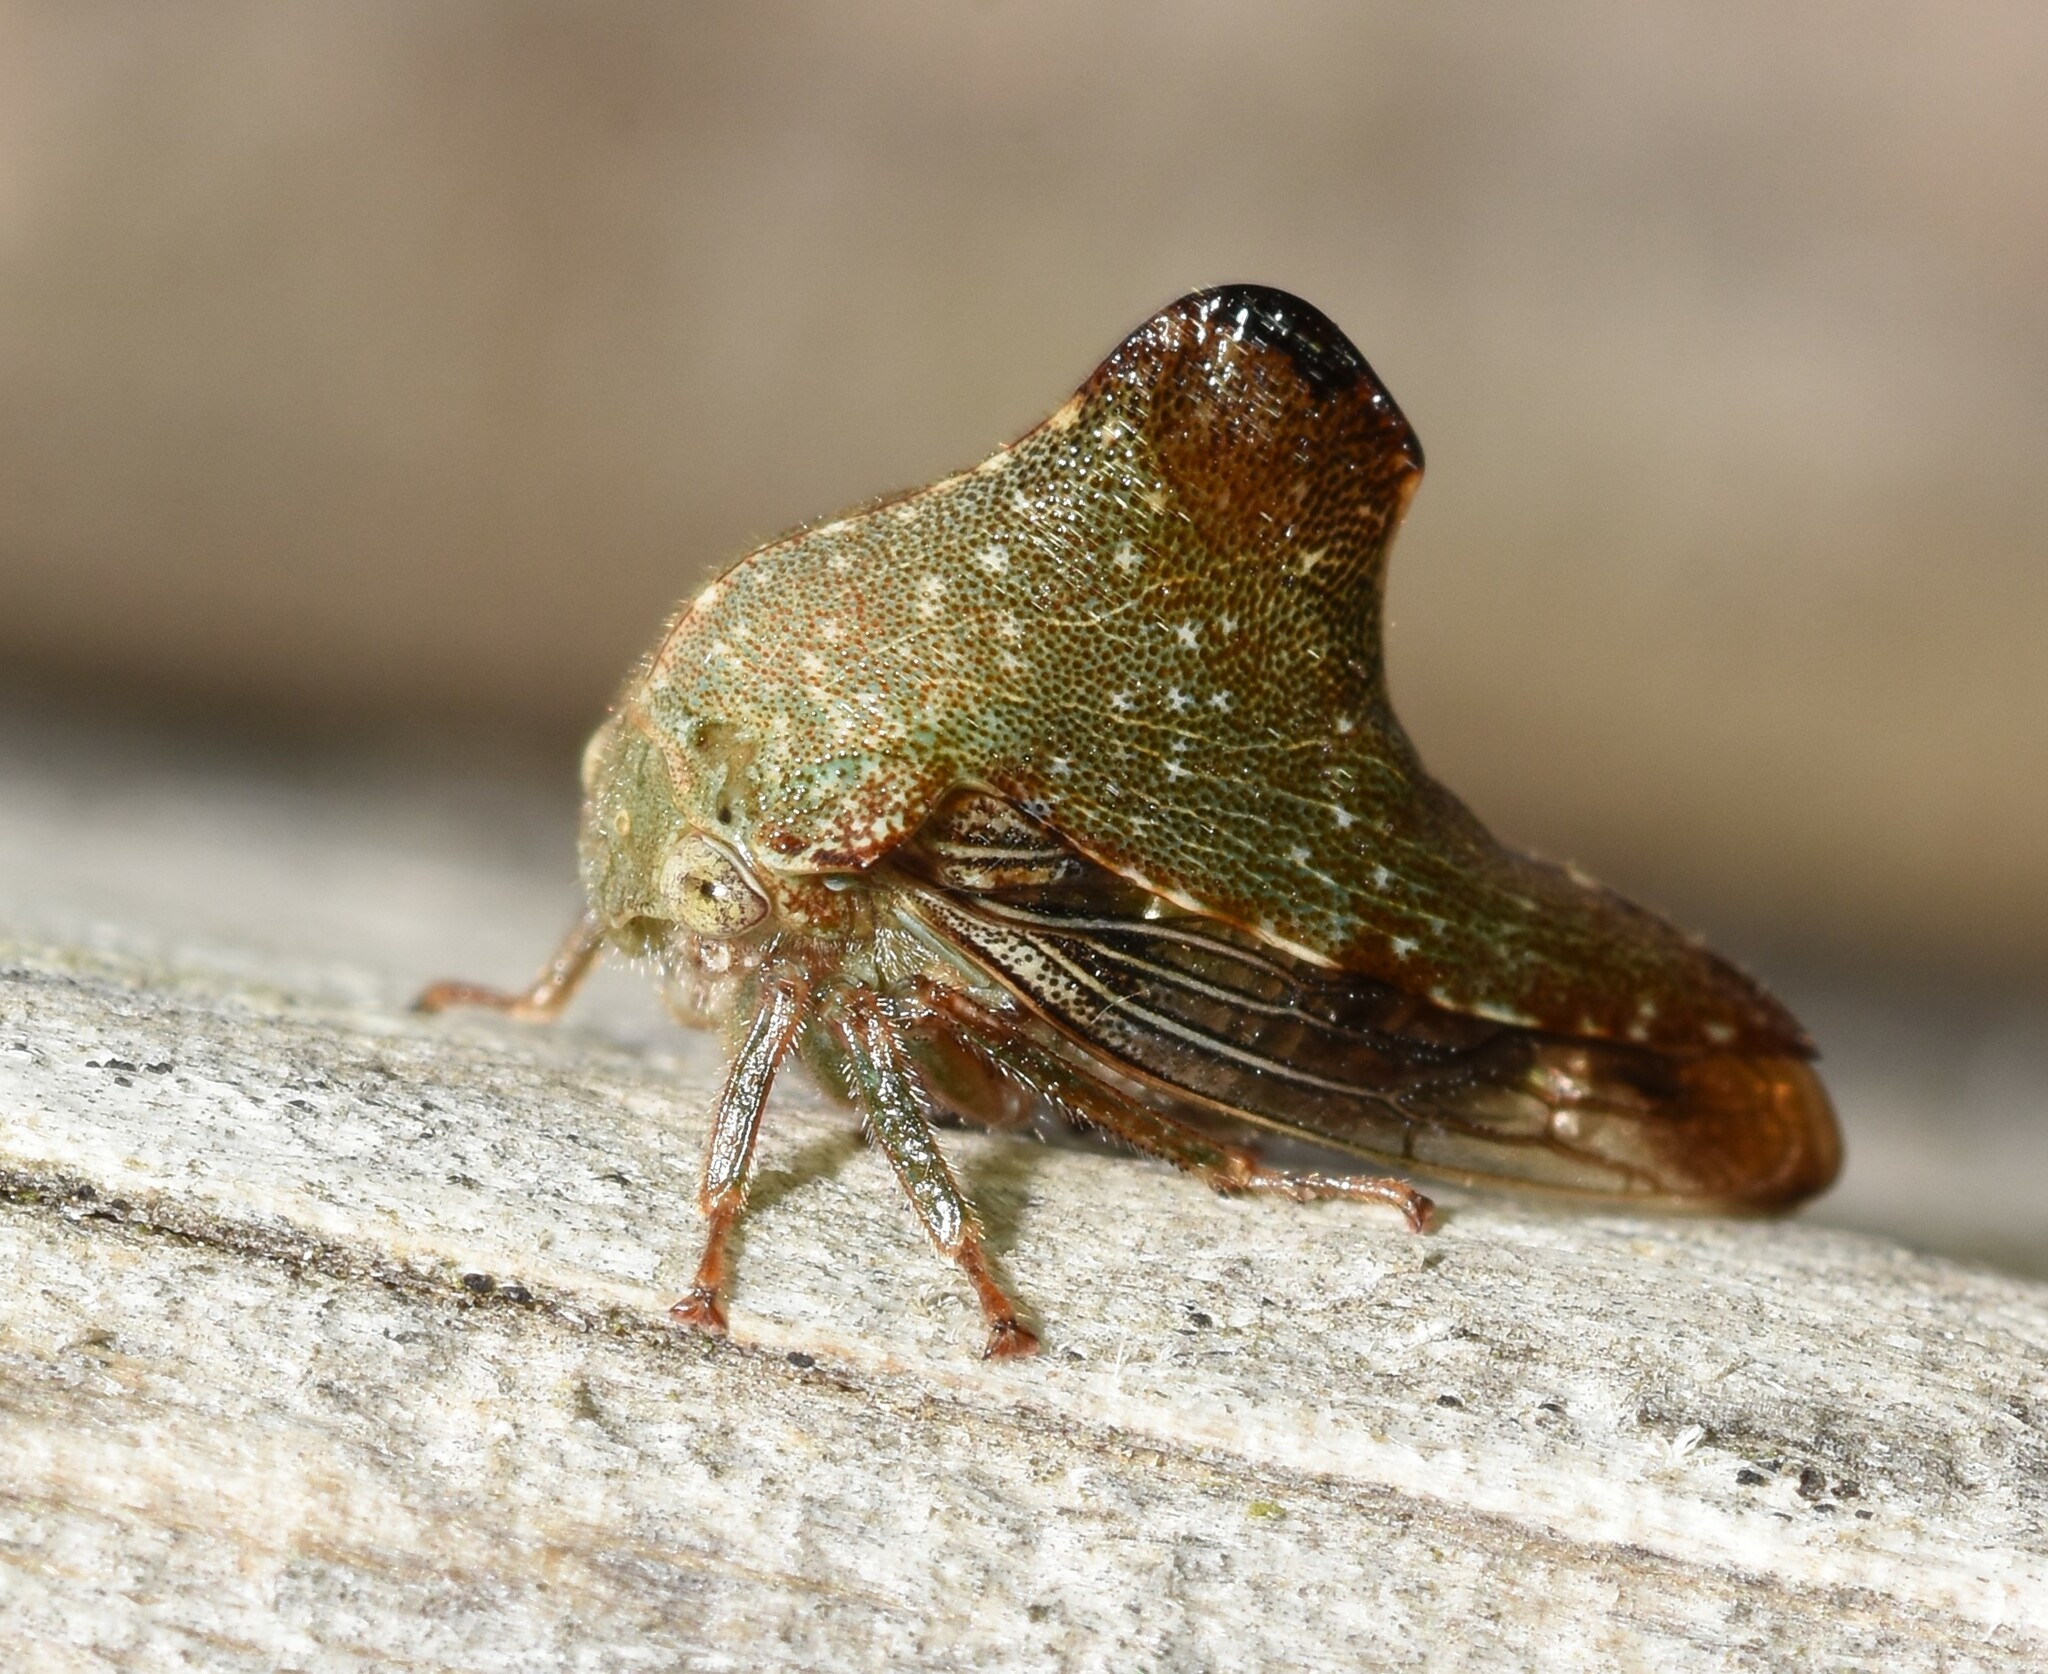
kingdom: Animalia
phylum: Arthropoda
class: Insecta
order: Hemiptera
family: Membracidae
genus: Telamona
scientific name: Telamona monticola
